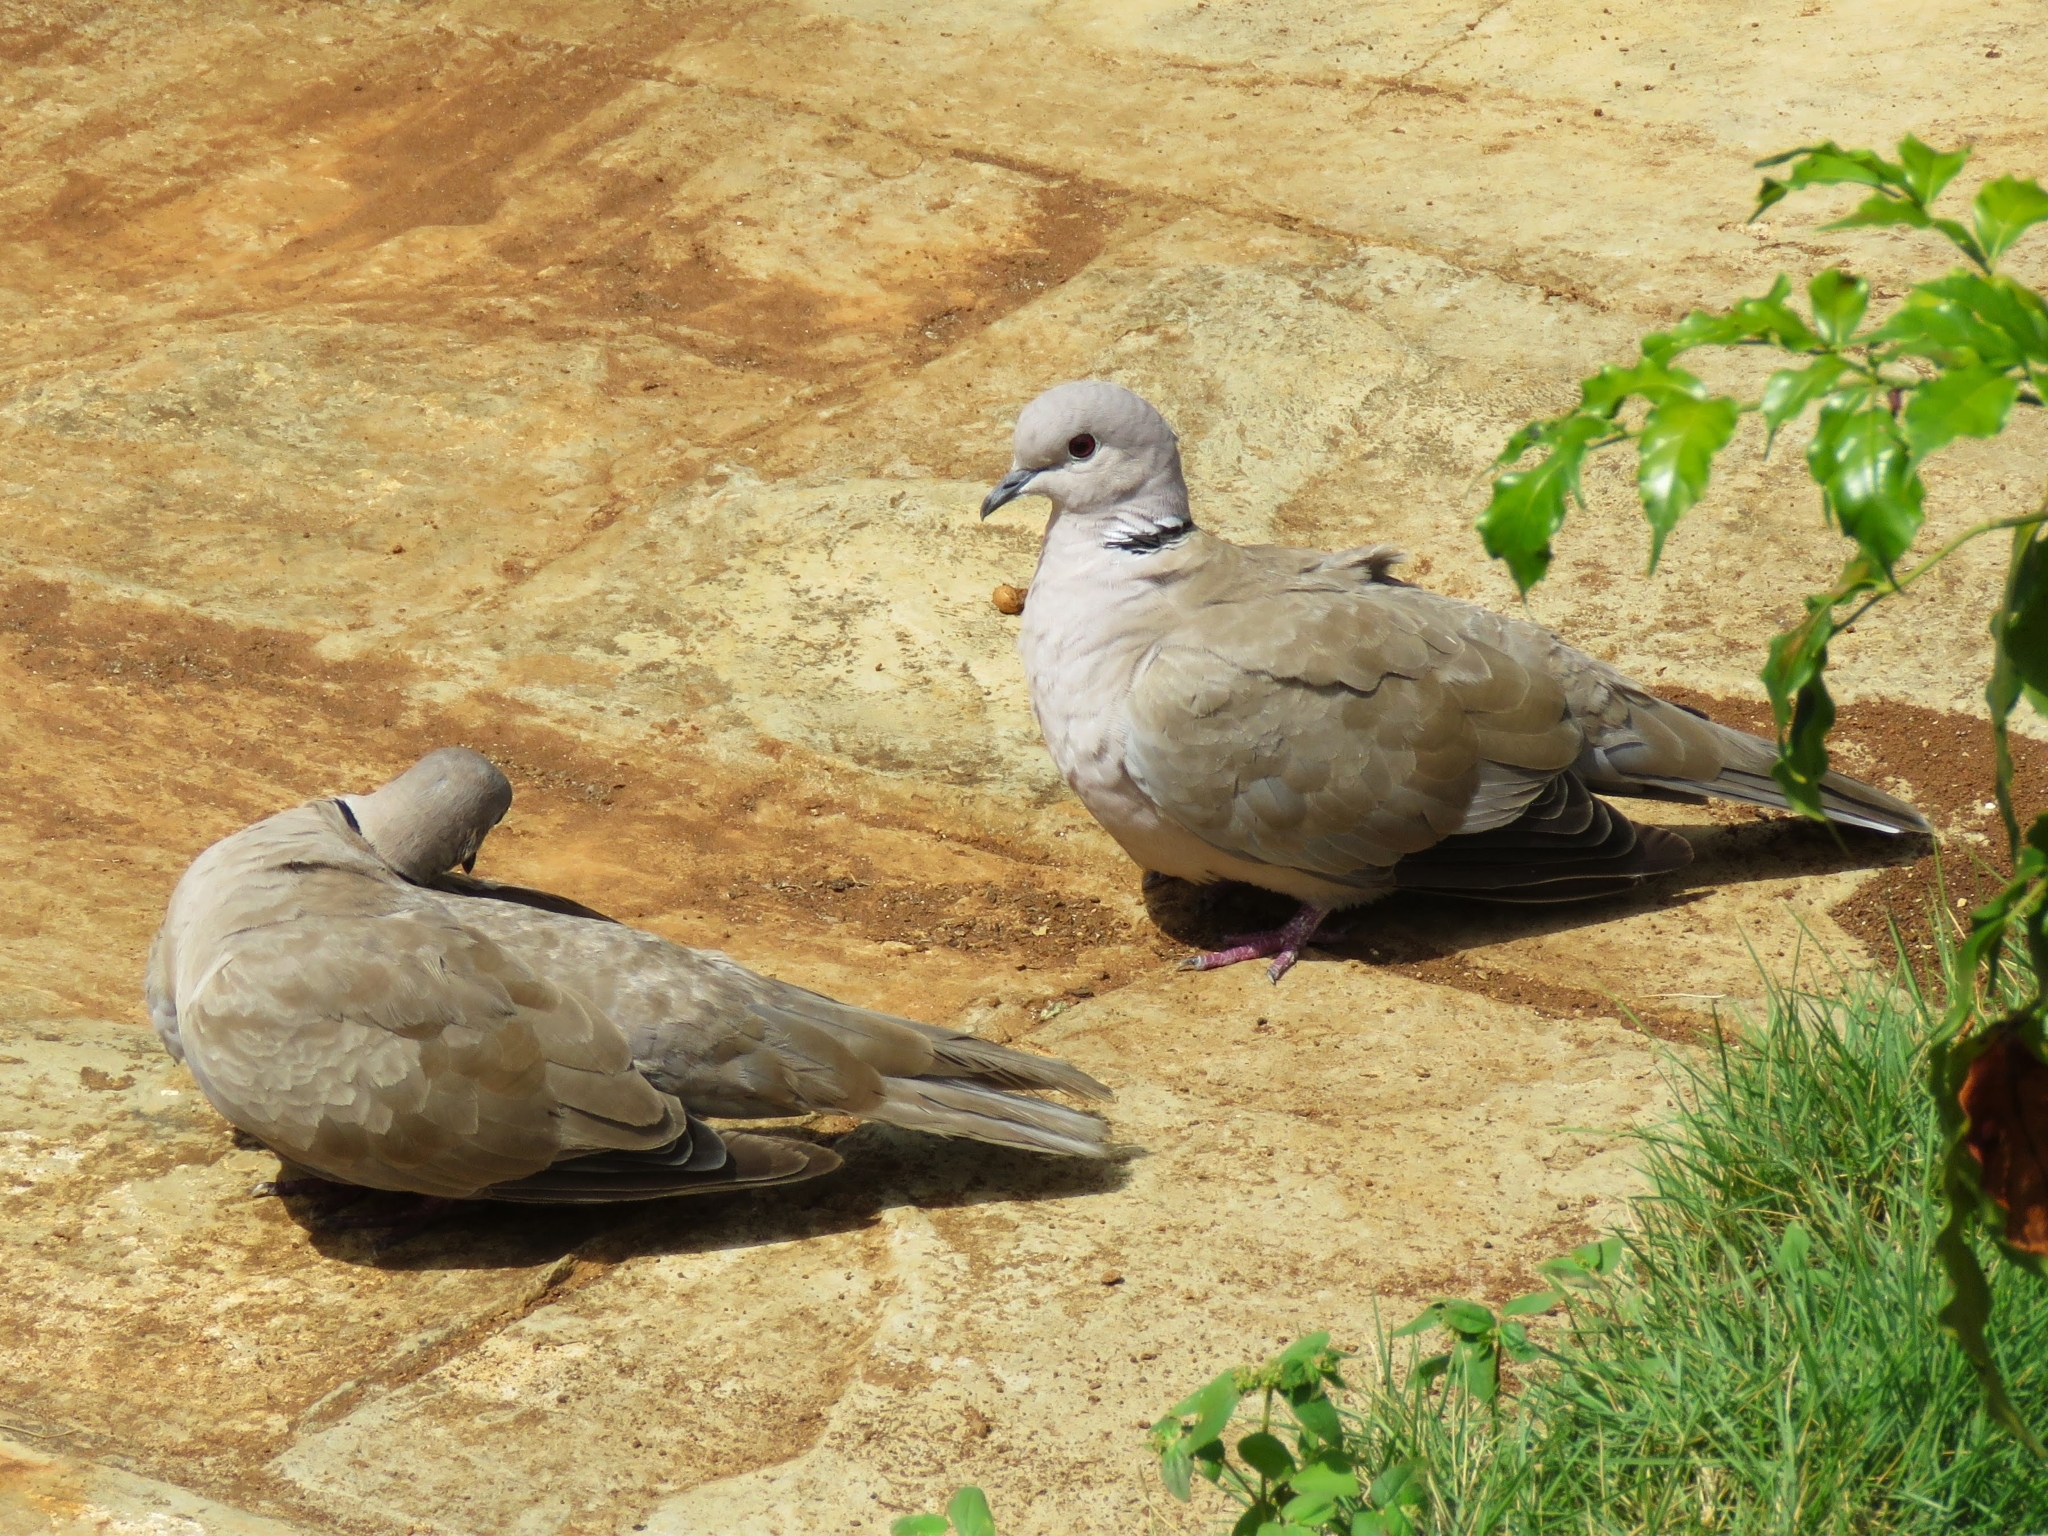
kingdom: Animalia
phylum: Chordata
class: Aves
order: Columbiformes
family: Columbidae
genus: Streptopelia
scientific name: Streptopelia decaocto
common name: Eurasian collared dove
